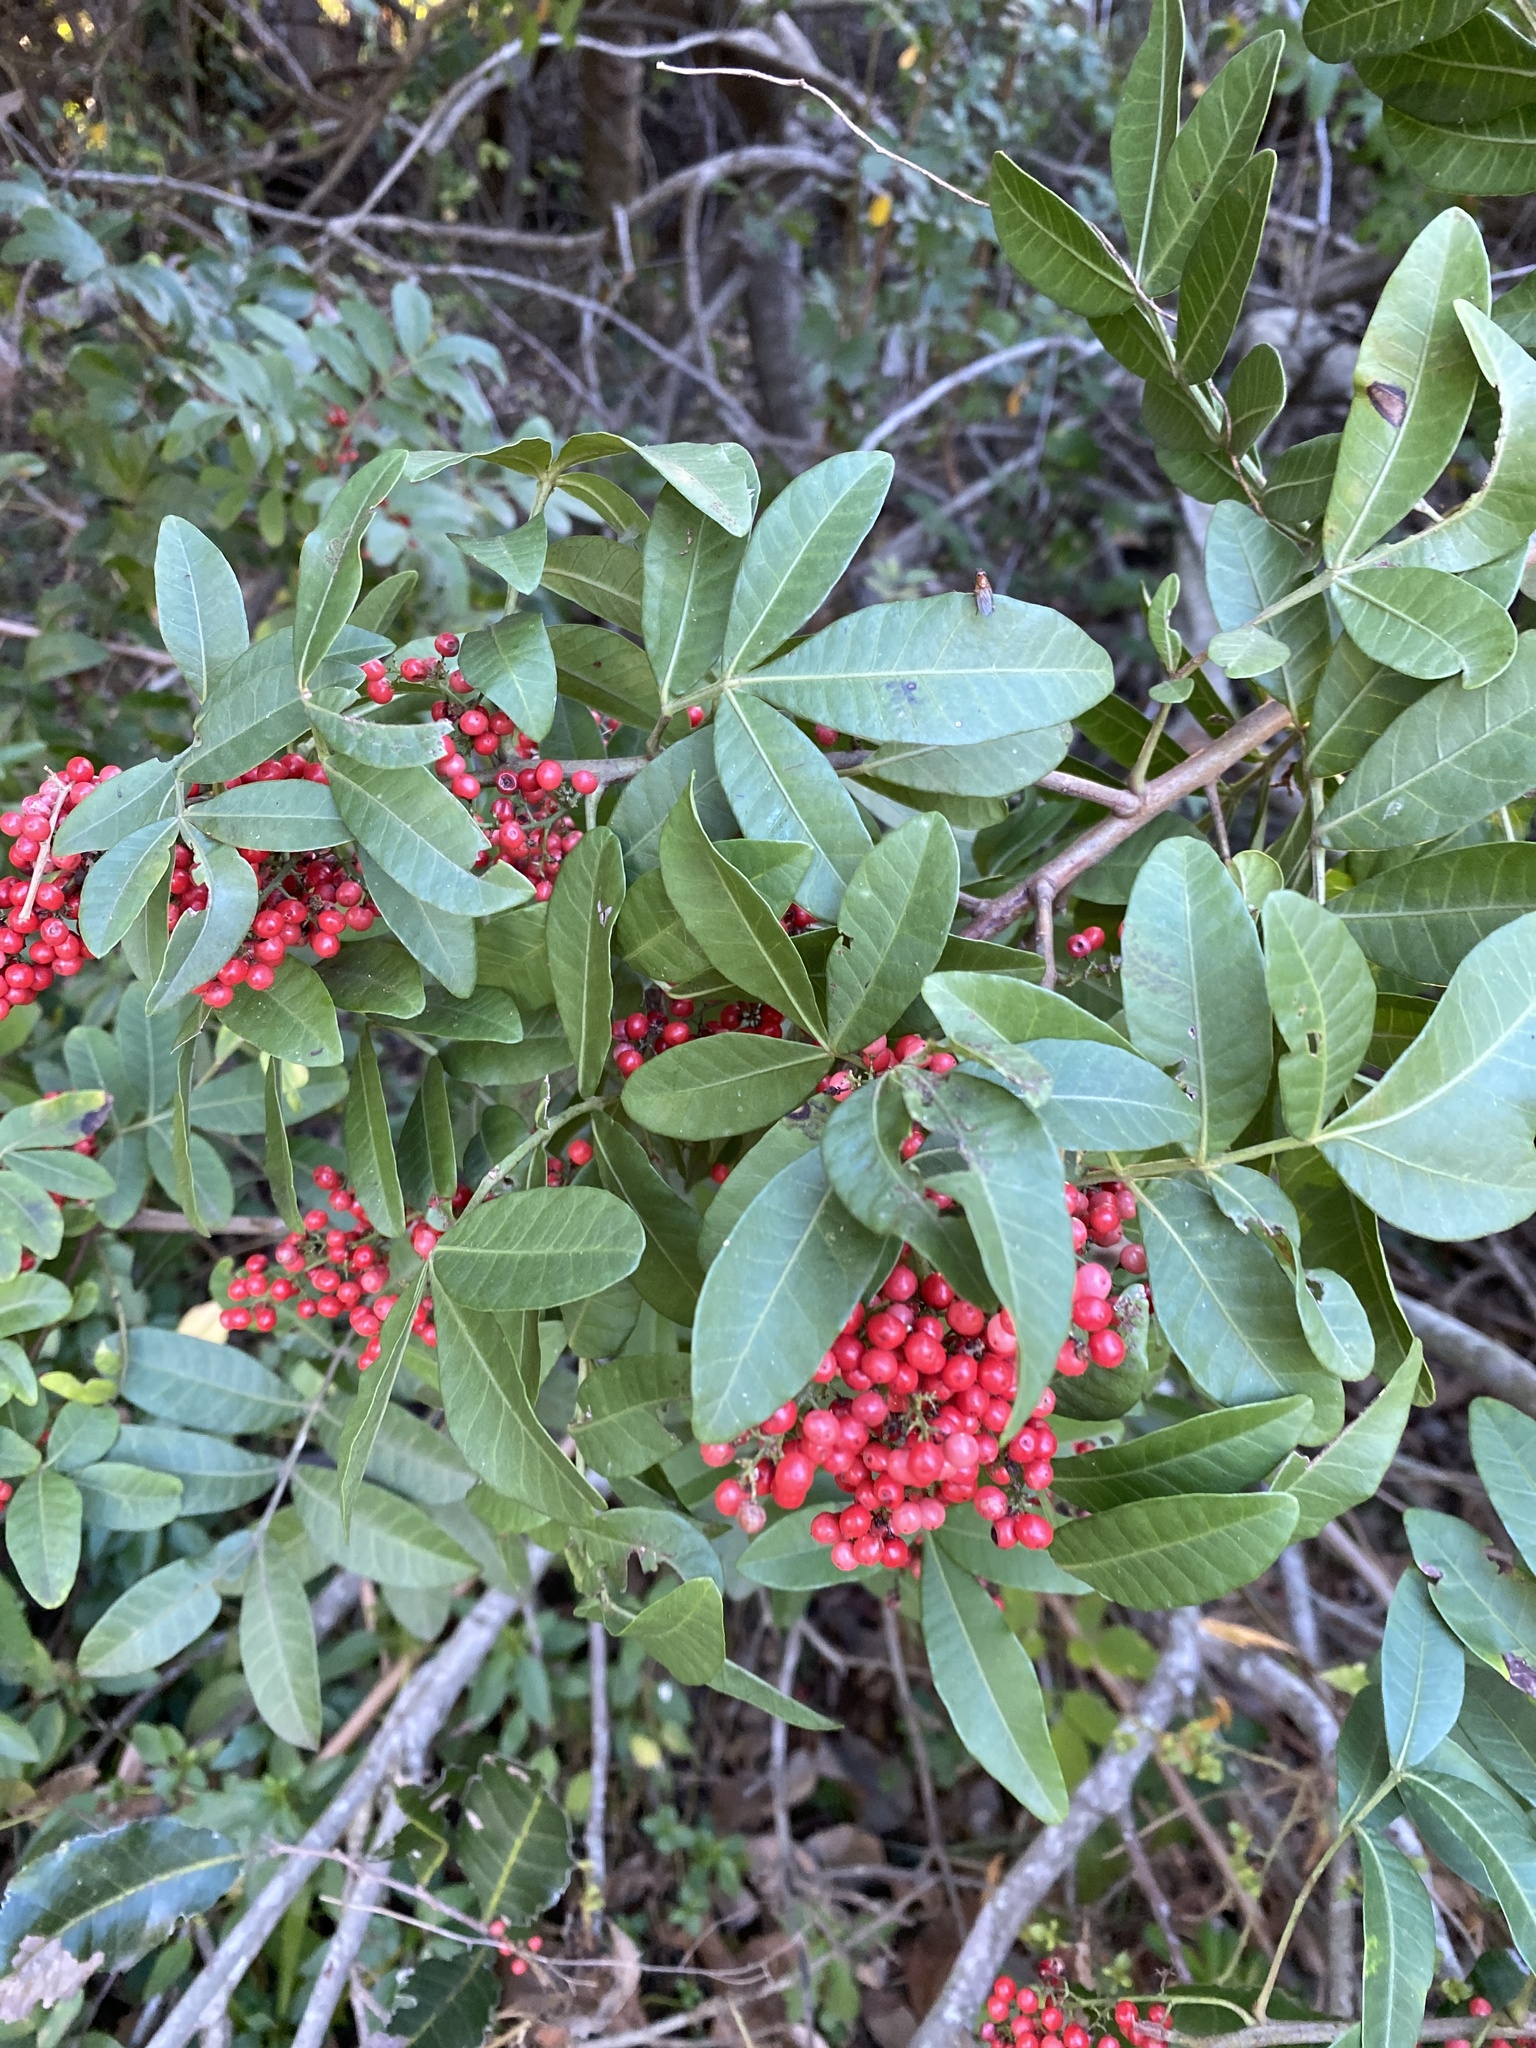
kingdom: Plantae
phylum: Tracheophyta
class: Magnoliopsida
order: Sapindales
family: Anacardiaceae
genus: Schinus
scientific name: Schinus terebinthifolia
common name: Brazilian peppertree
